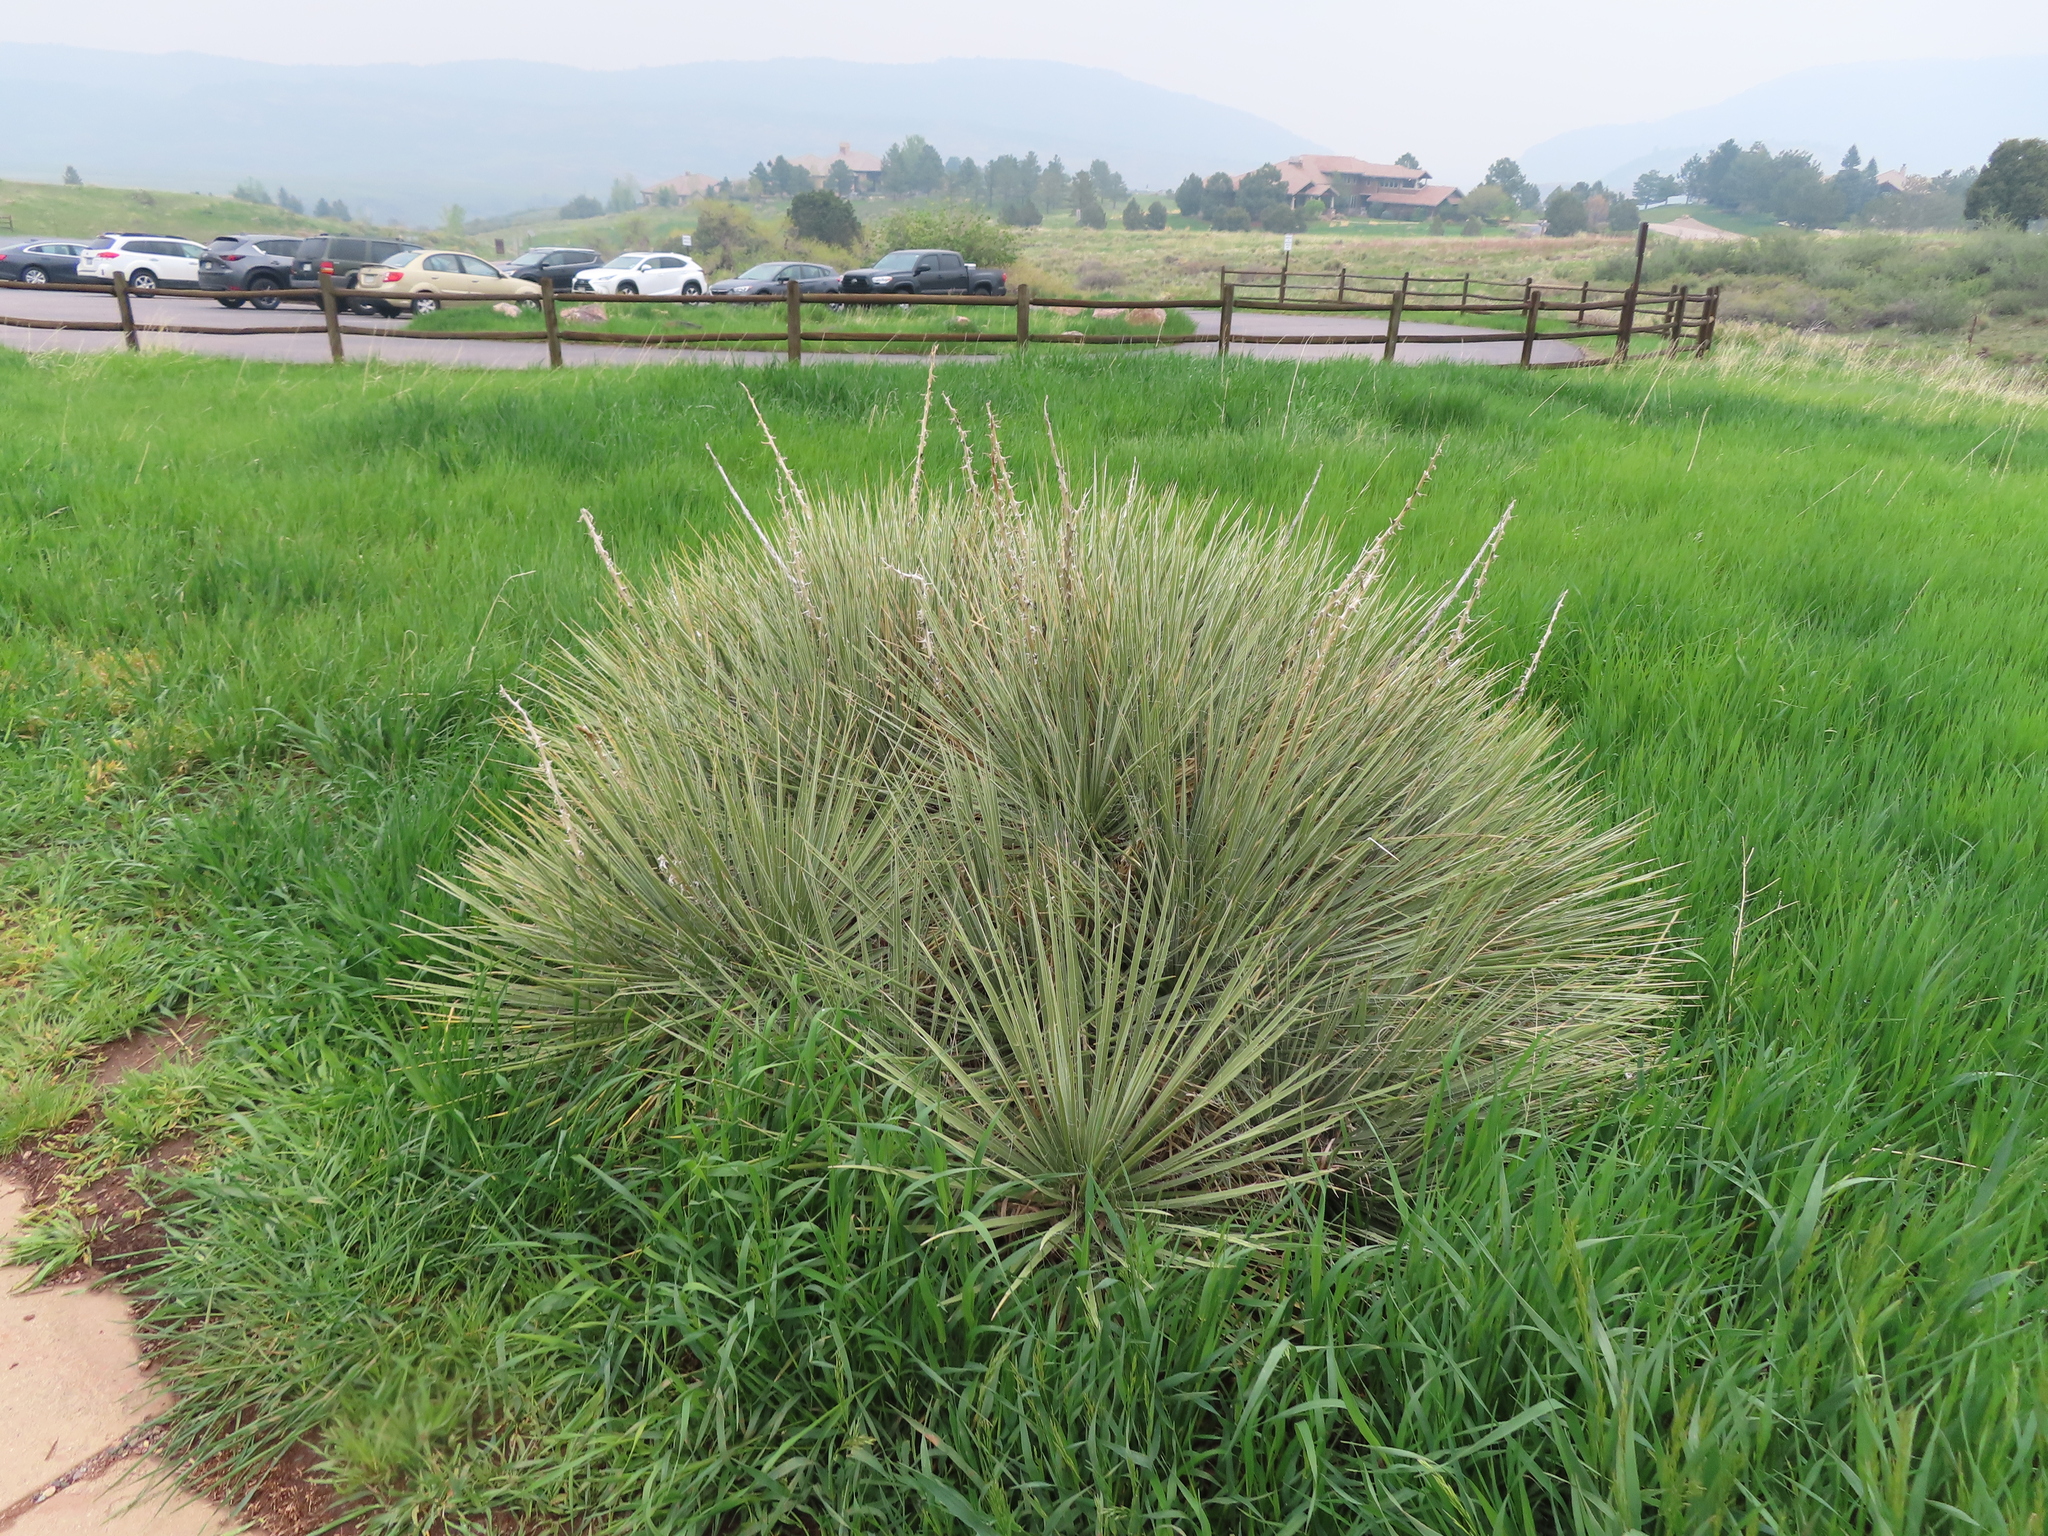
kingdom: Plantae
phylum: Tracheophyta
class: Liliopsida
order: Asparagales
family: Asparagaceae
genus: Yucca
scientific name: Yucca glauca
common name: Great plains yucca
